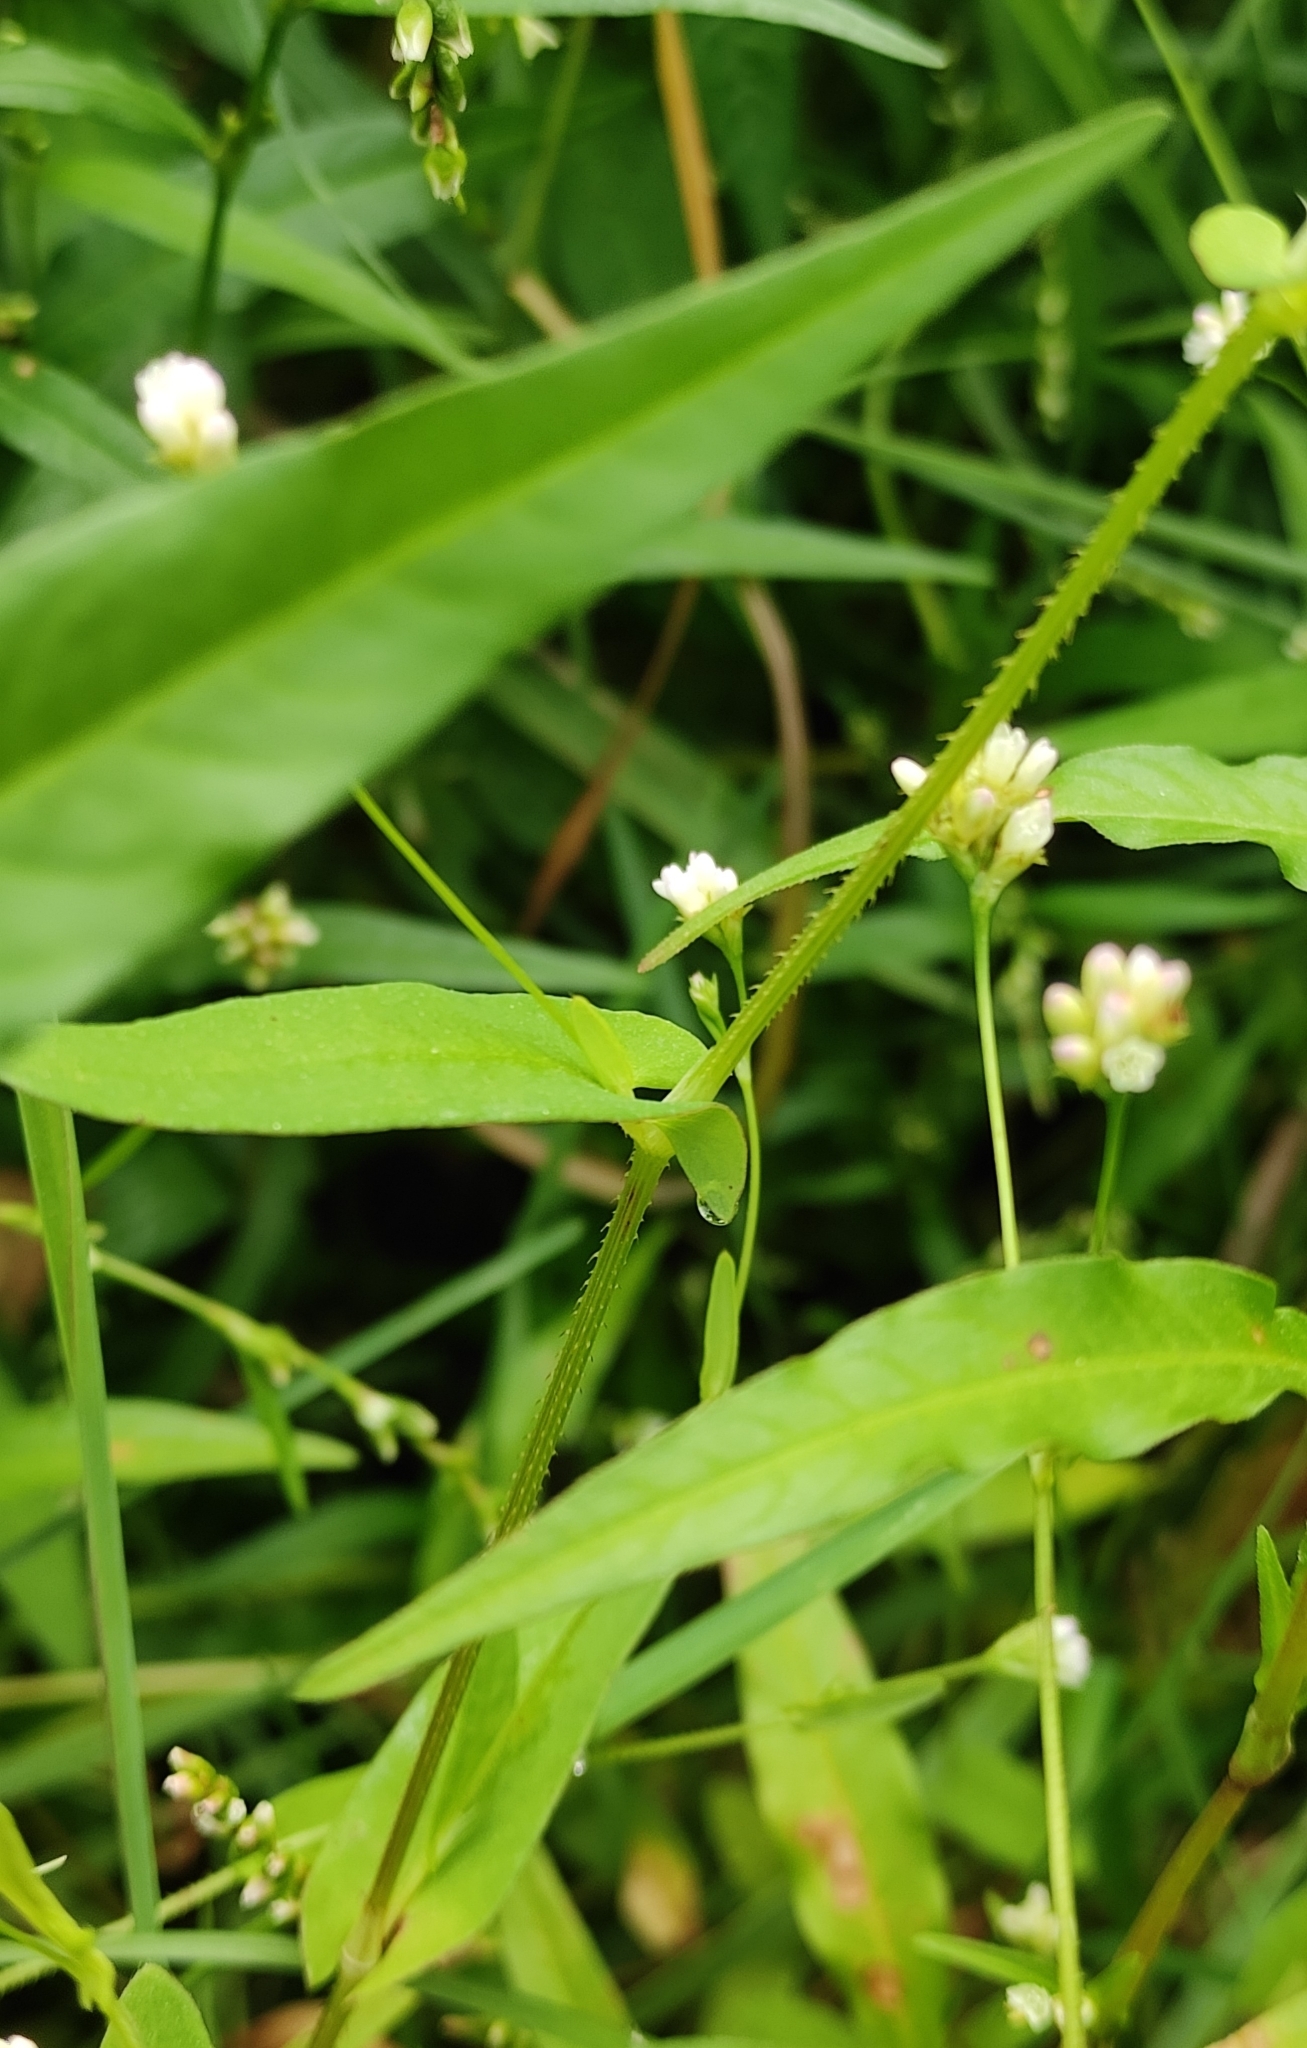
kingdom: Plantae
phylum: Tracheophyta
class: Magnoliopsida
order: Caryophyllales
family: Polygonaceae
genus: Persicaria
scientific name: Persicaria sagittata
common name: American tearthumb
